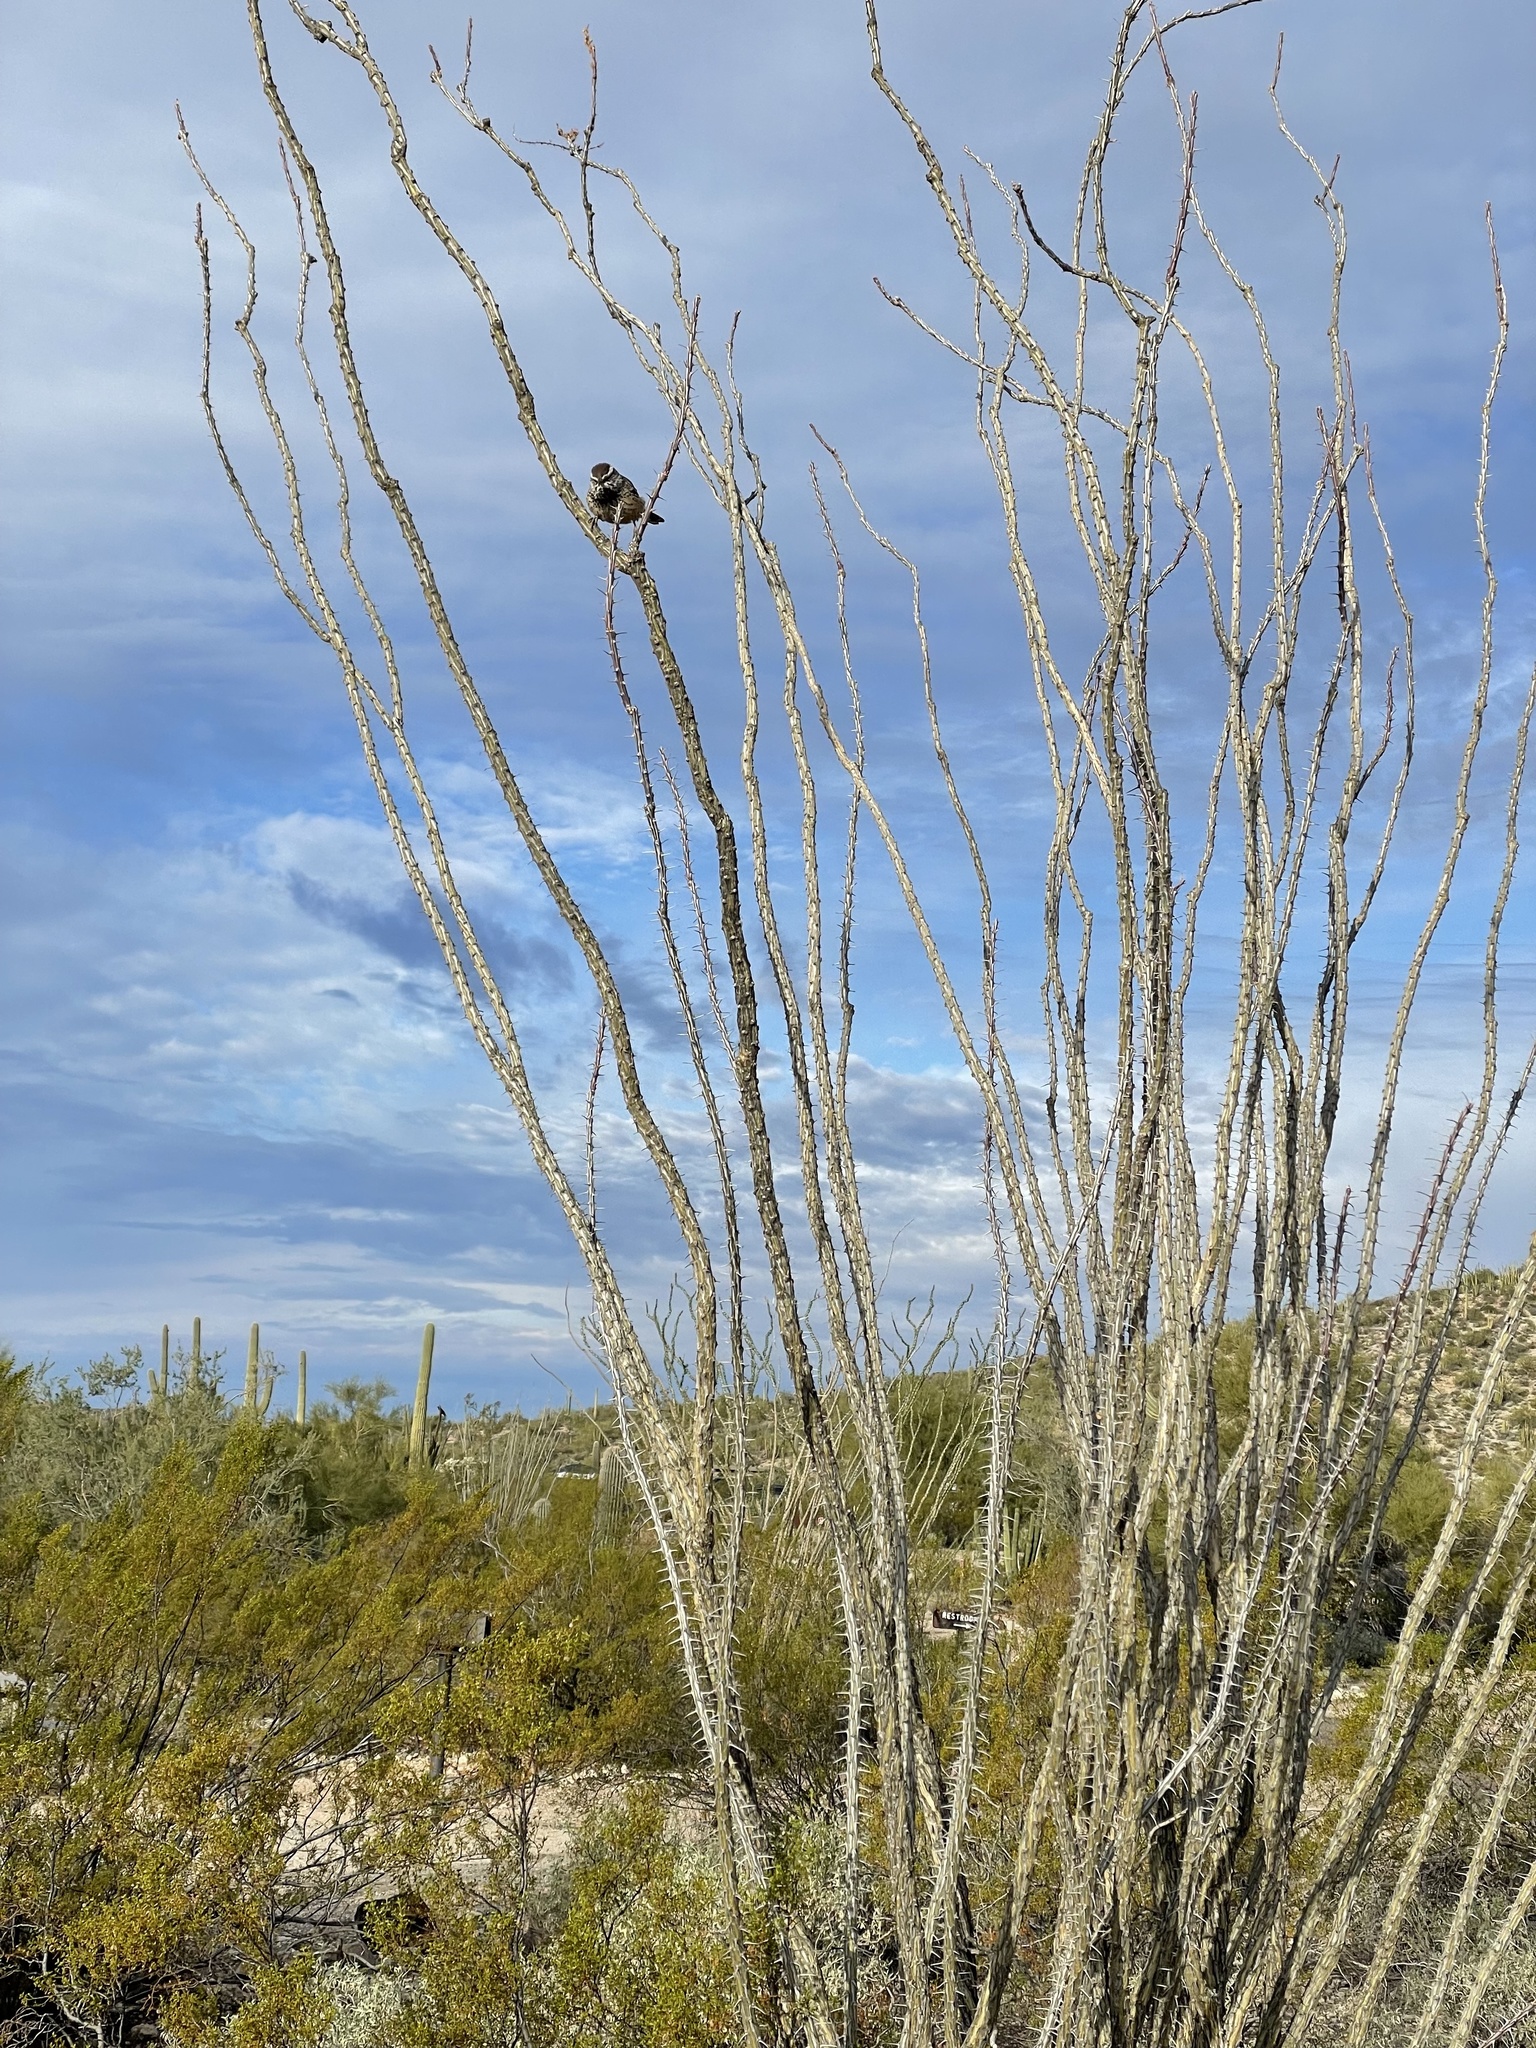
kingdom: Animalia
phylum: Chordata
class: Aves
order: Passeriformes
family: Troglodytidae
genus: Campylorhynchus
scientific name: Campylorhynchus brunneicapillus
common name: Cactus wren
